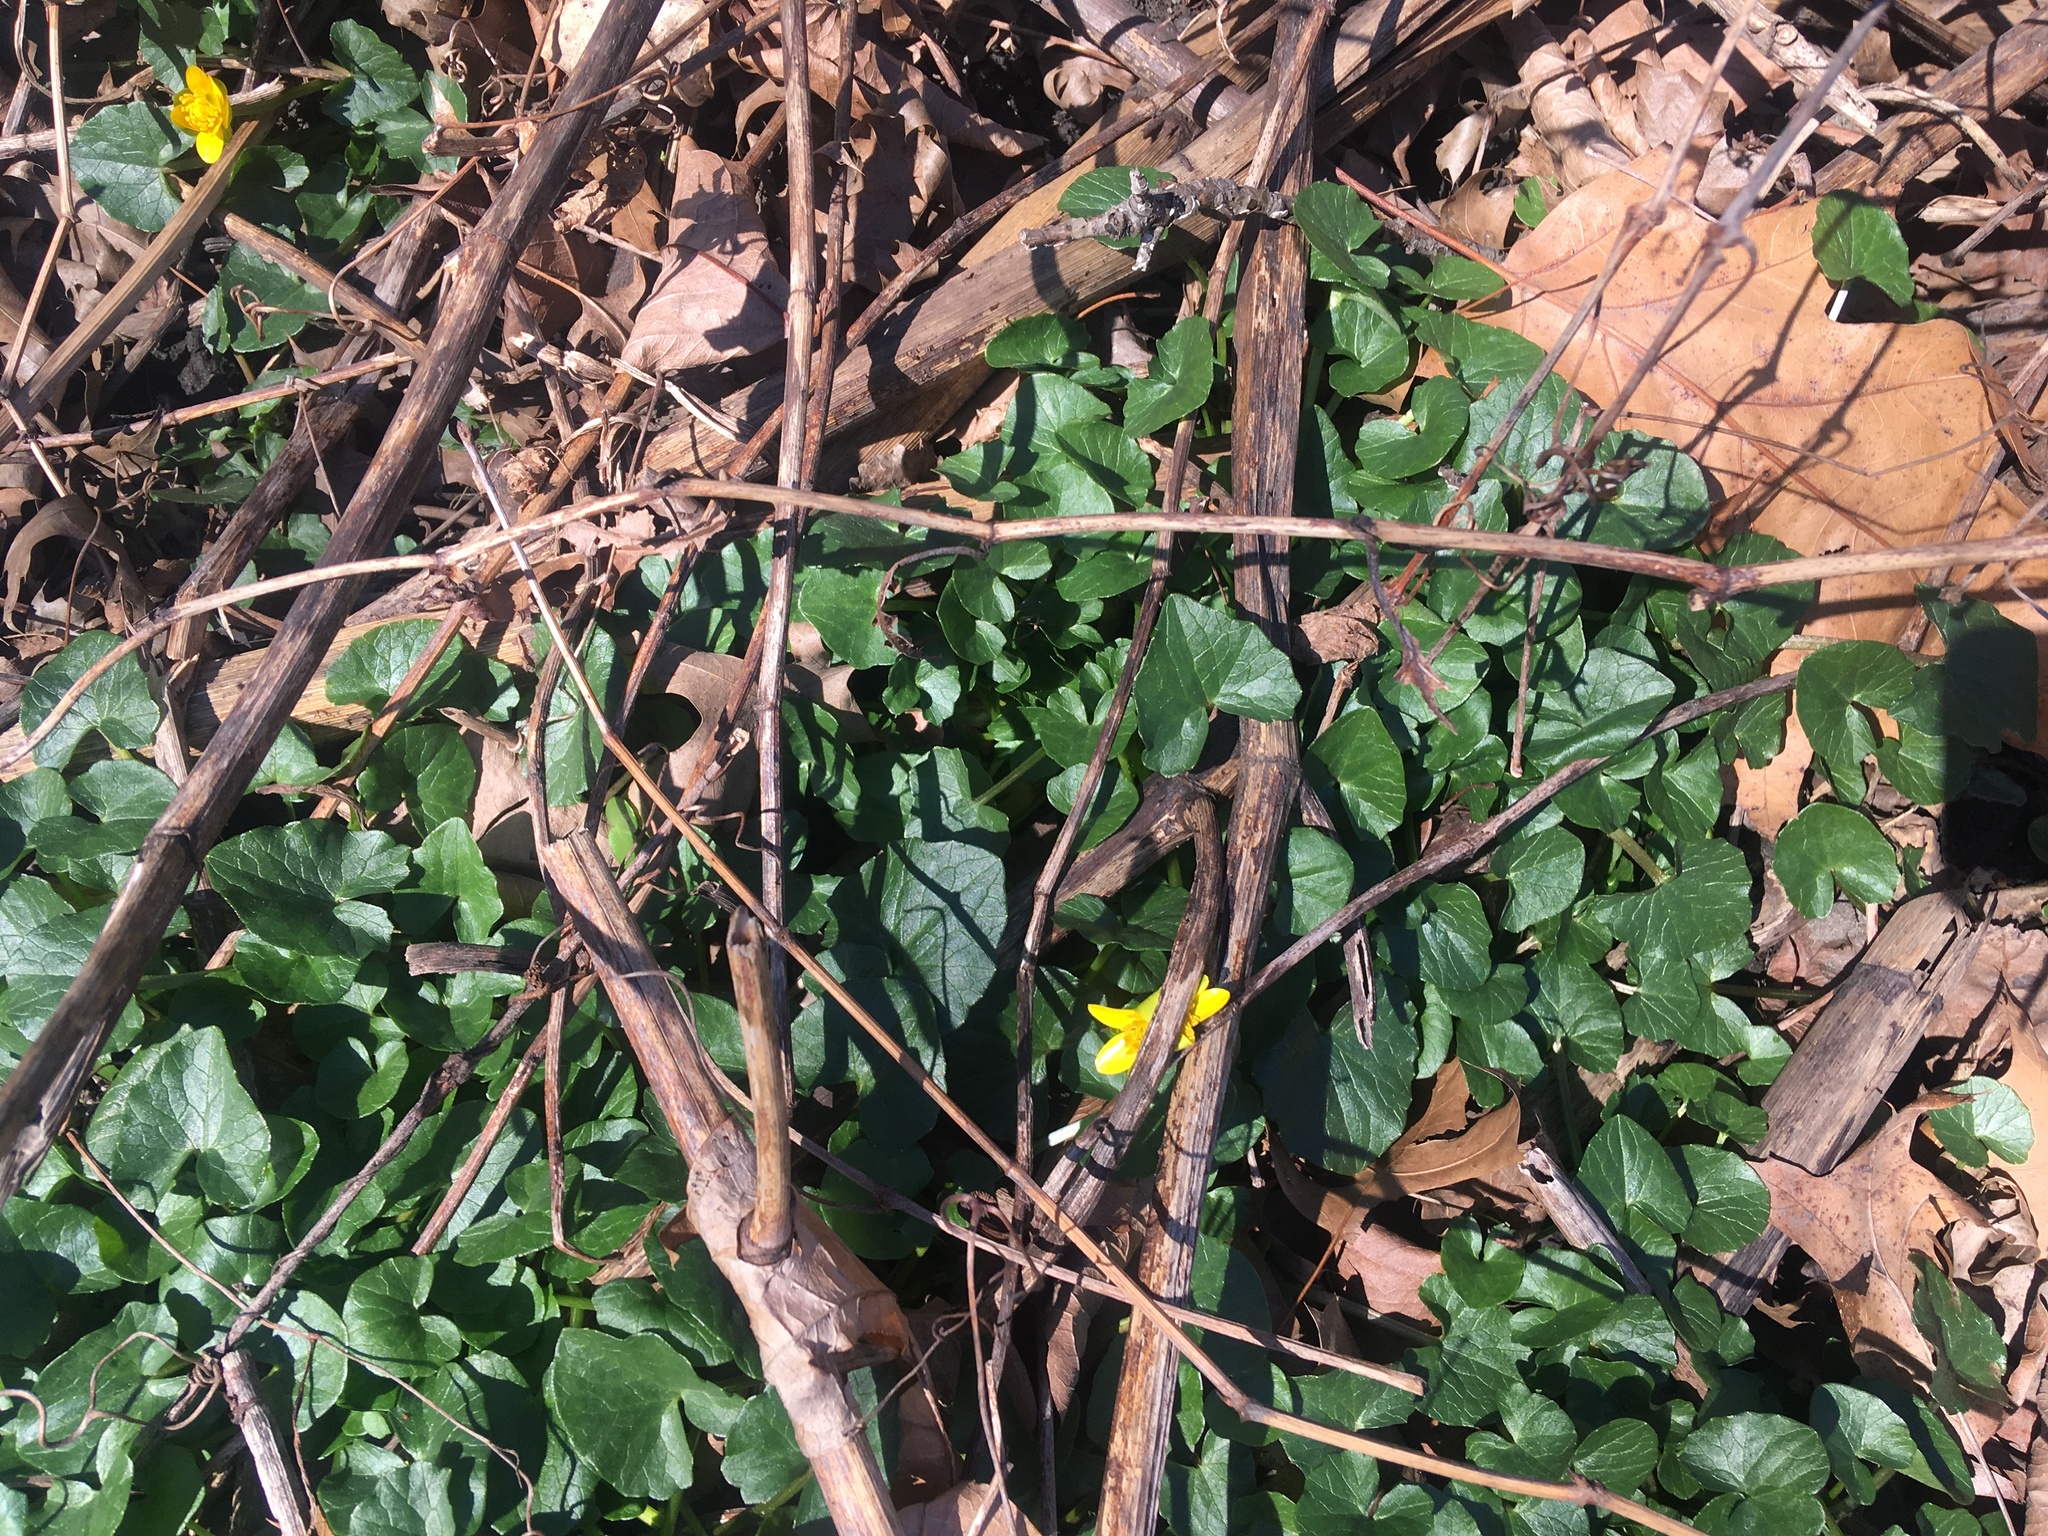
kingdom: Plantae
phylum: Tracheophyta
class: Magnoliopsida
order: Ranunculales
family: Ranunculaceae
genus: Ficaria
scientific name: Ficaria verna
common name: Lesser celandine
